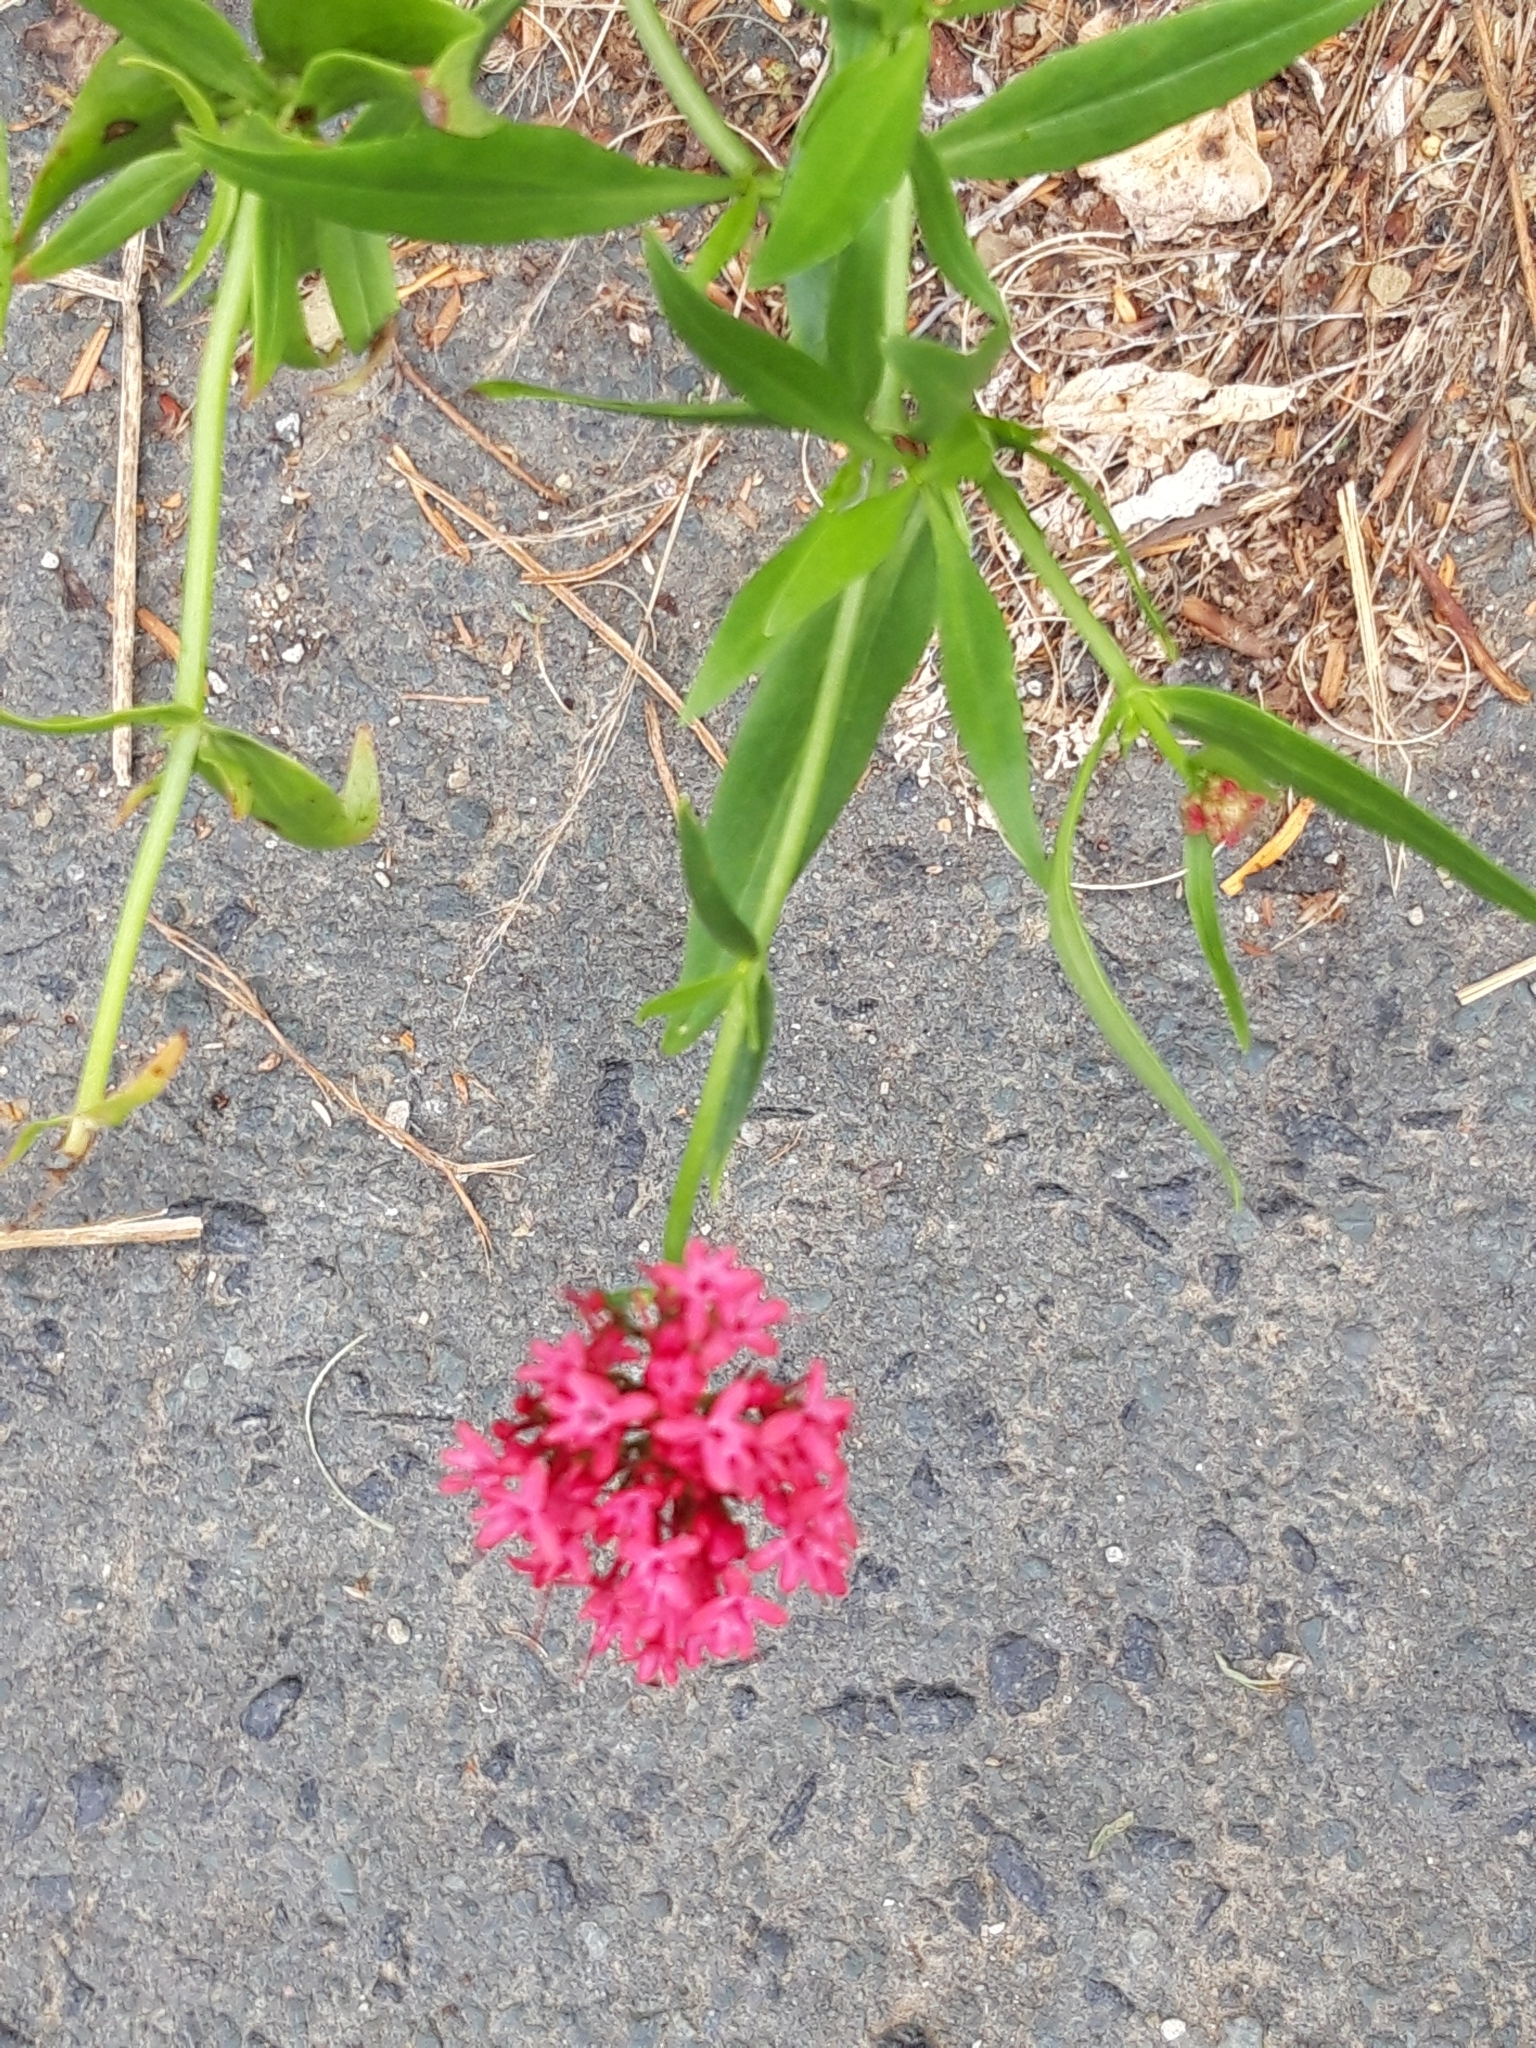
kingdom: Plantae
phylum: Tracheophyta
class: Magnoliopsida
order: Dipsacales
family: Caprifoliaceae
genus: Centranthus
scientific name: Centranthus ruber
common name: Red valerian
